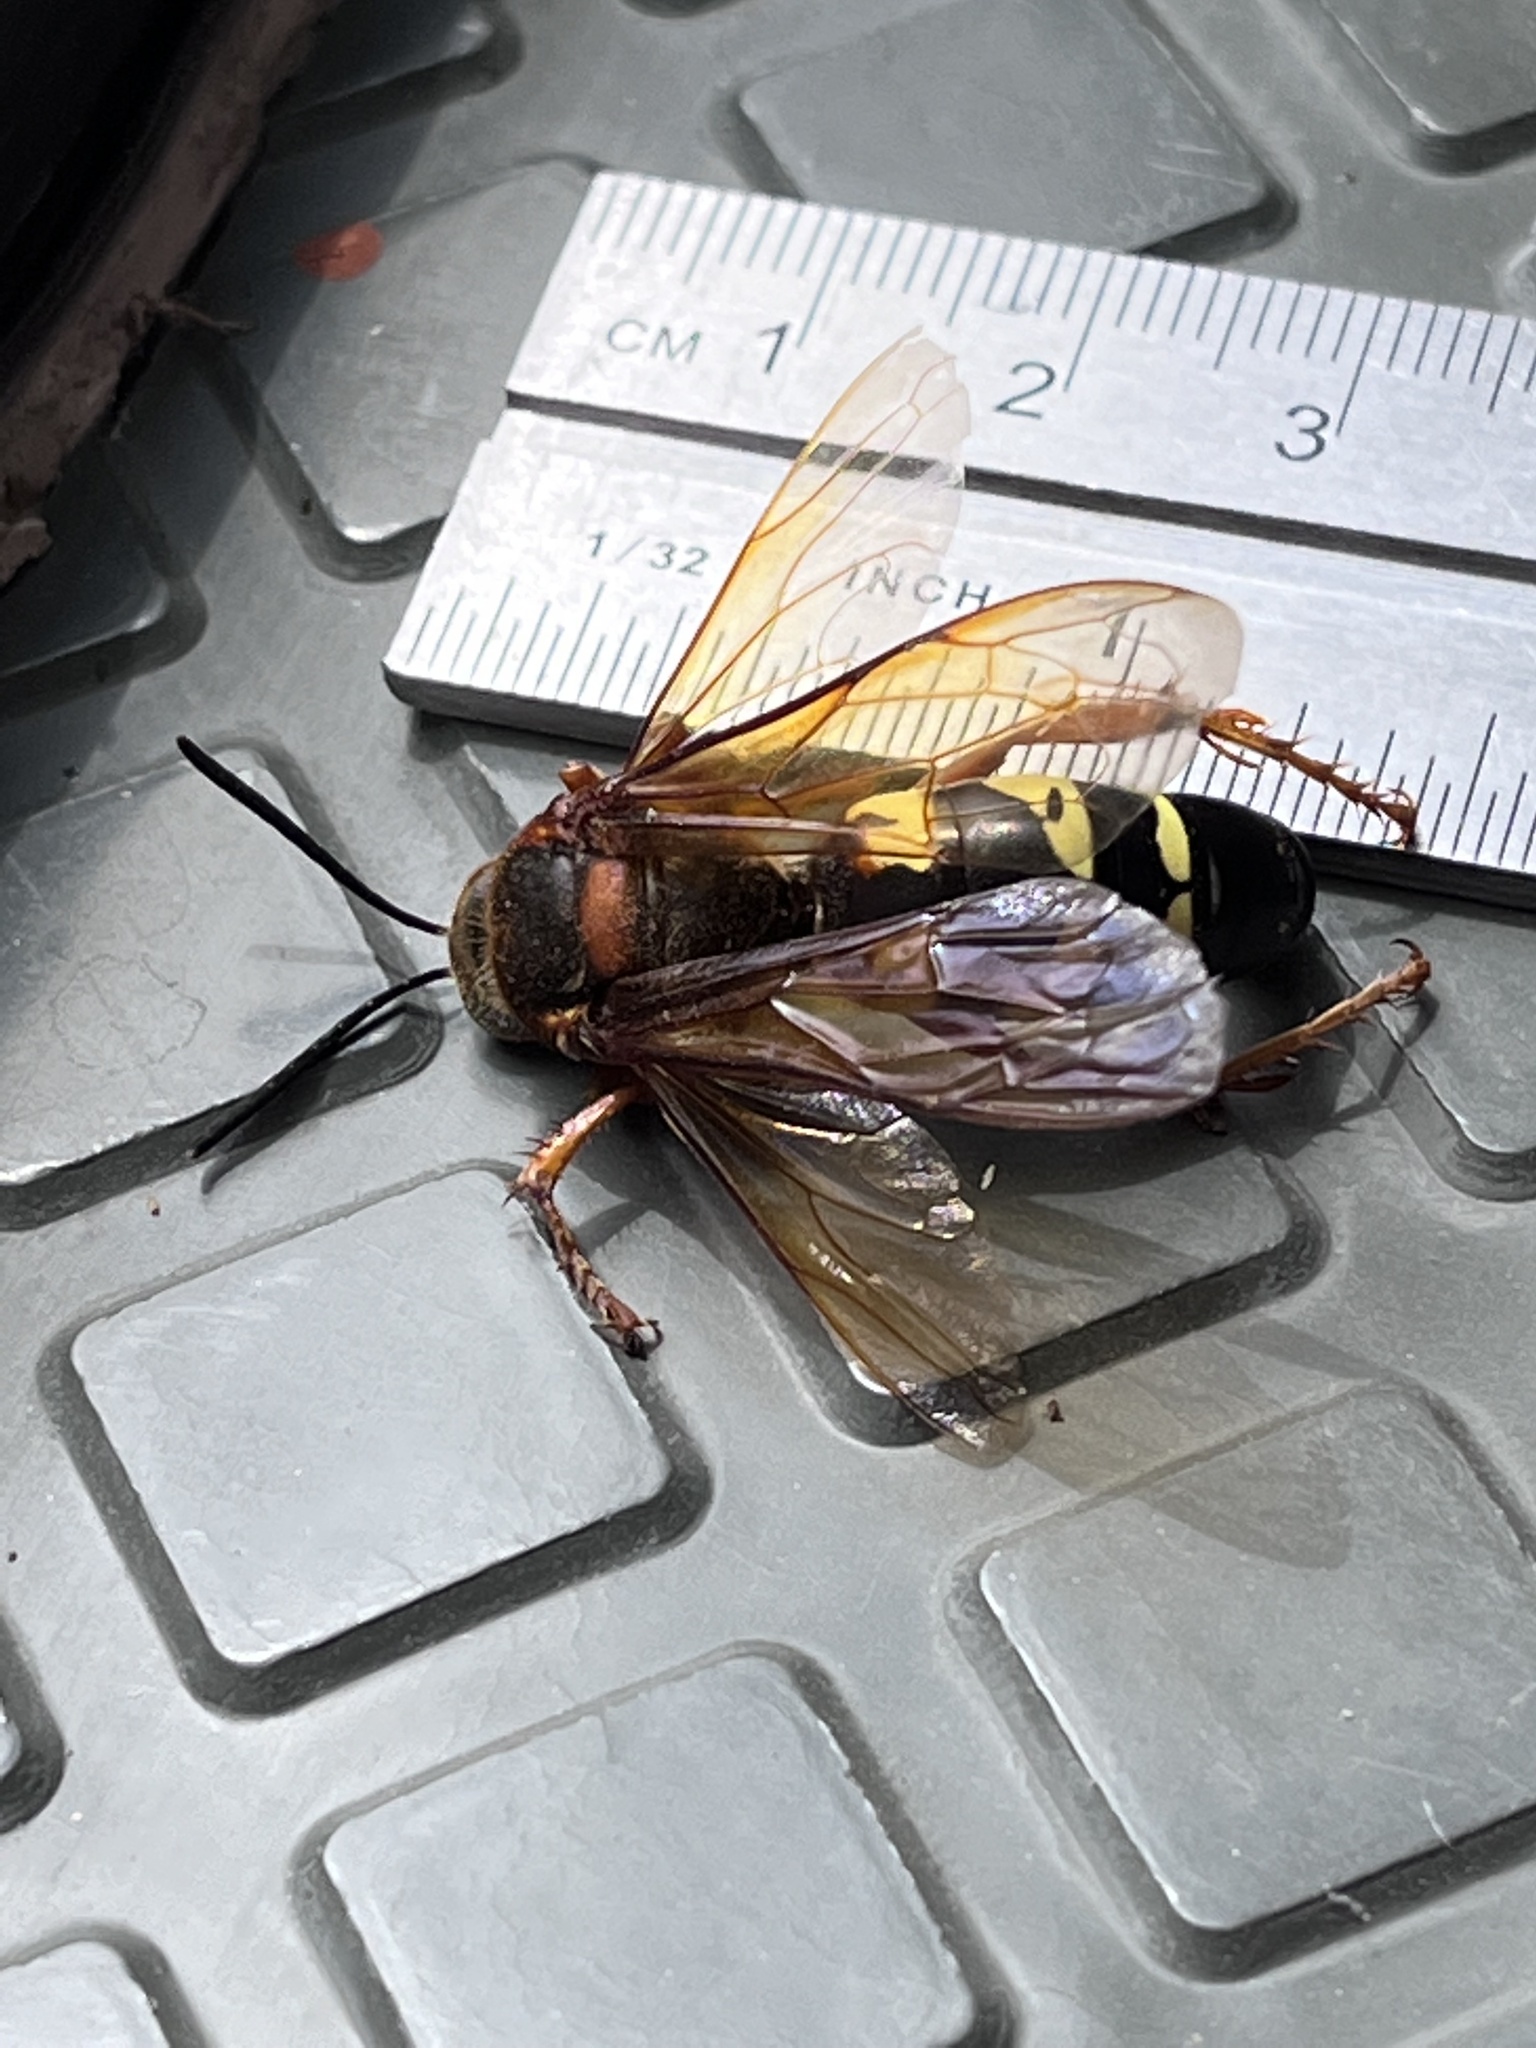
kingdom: Animalia
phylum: Arthropoda
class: Insecta
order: Hymenoptera
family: Crabronidae
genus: Sphecius
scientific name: Sphecius speciosus
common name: Cicada killer
